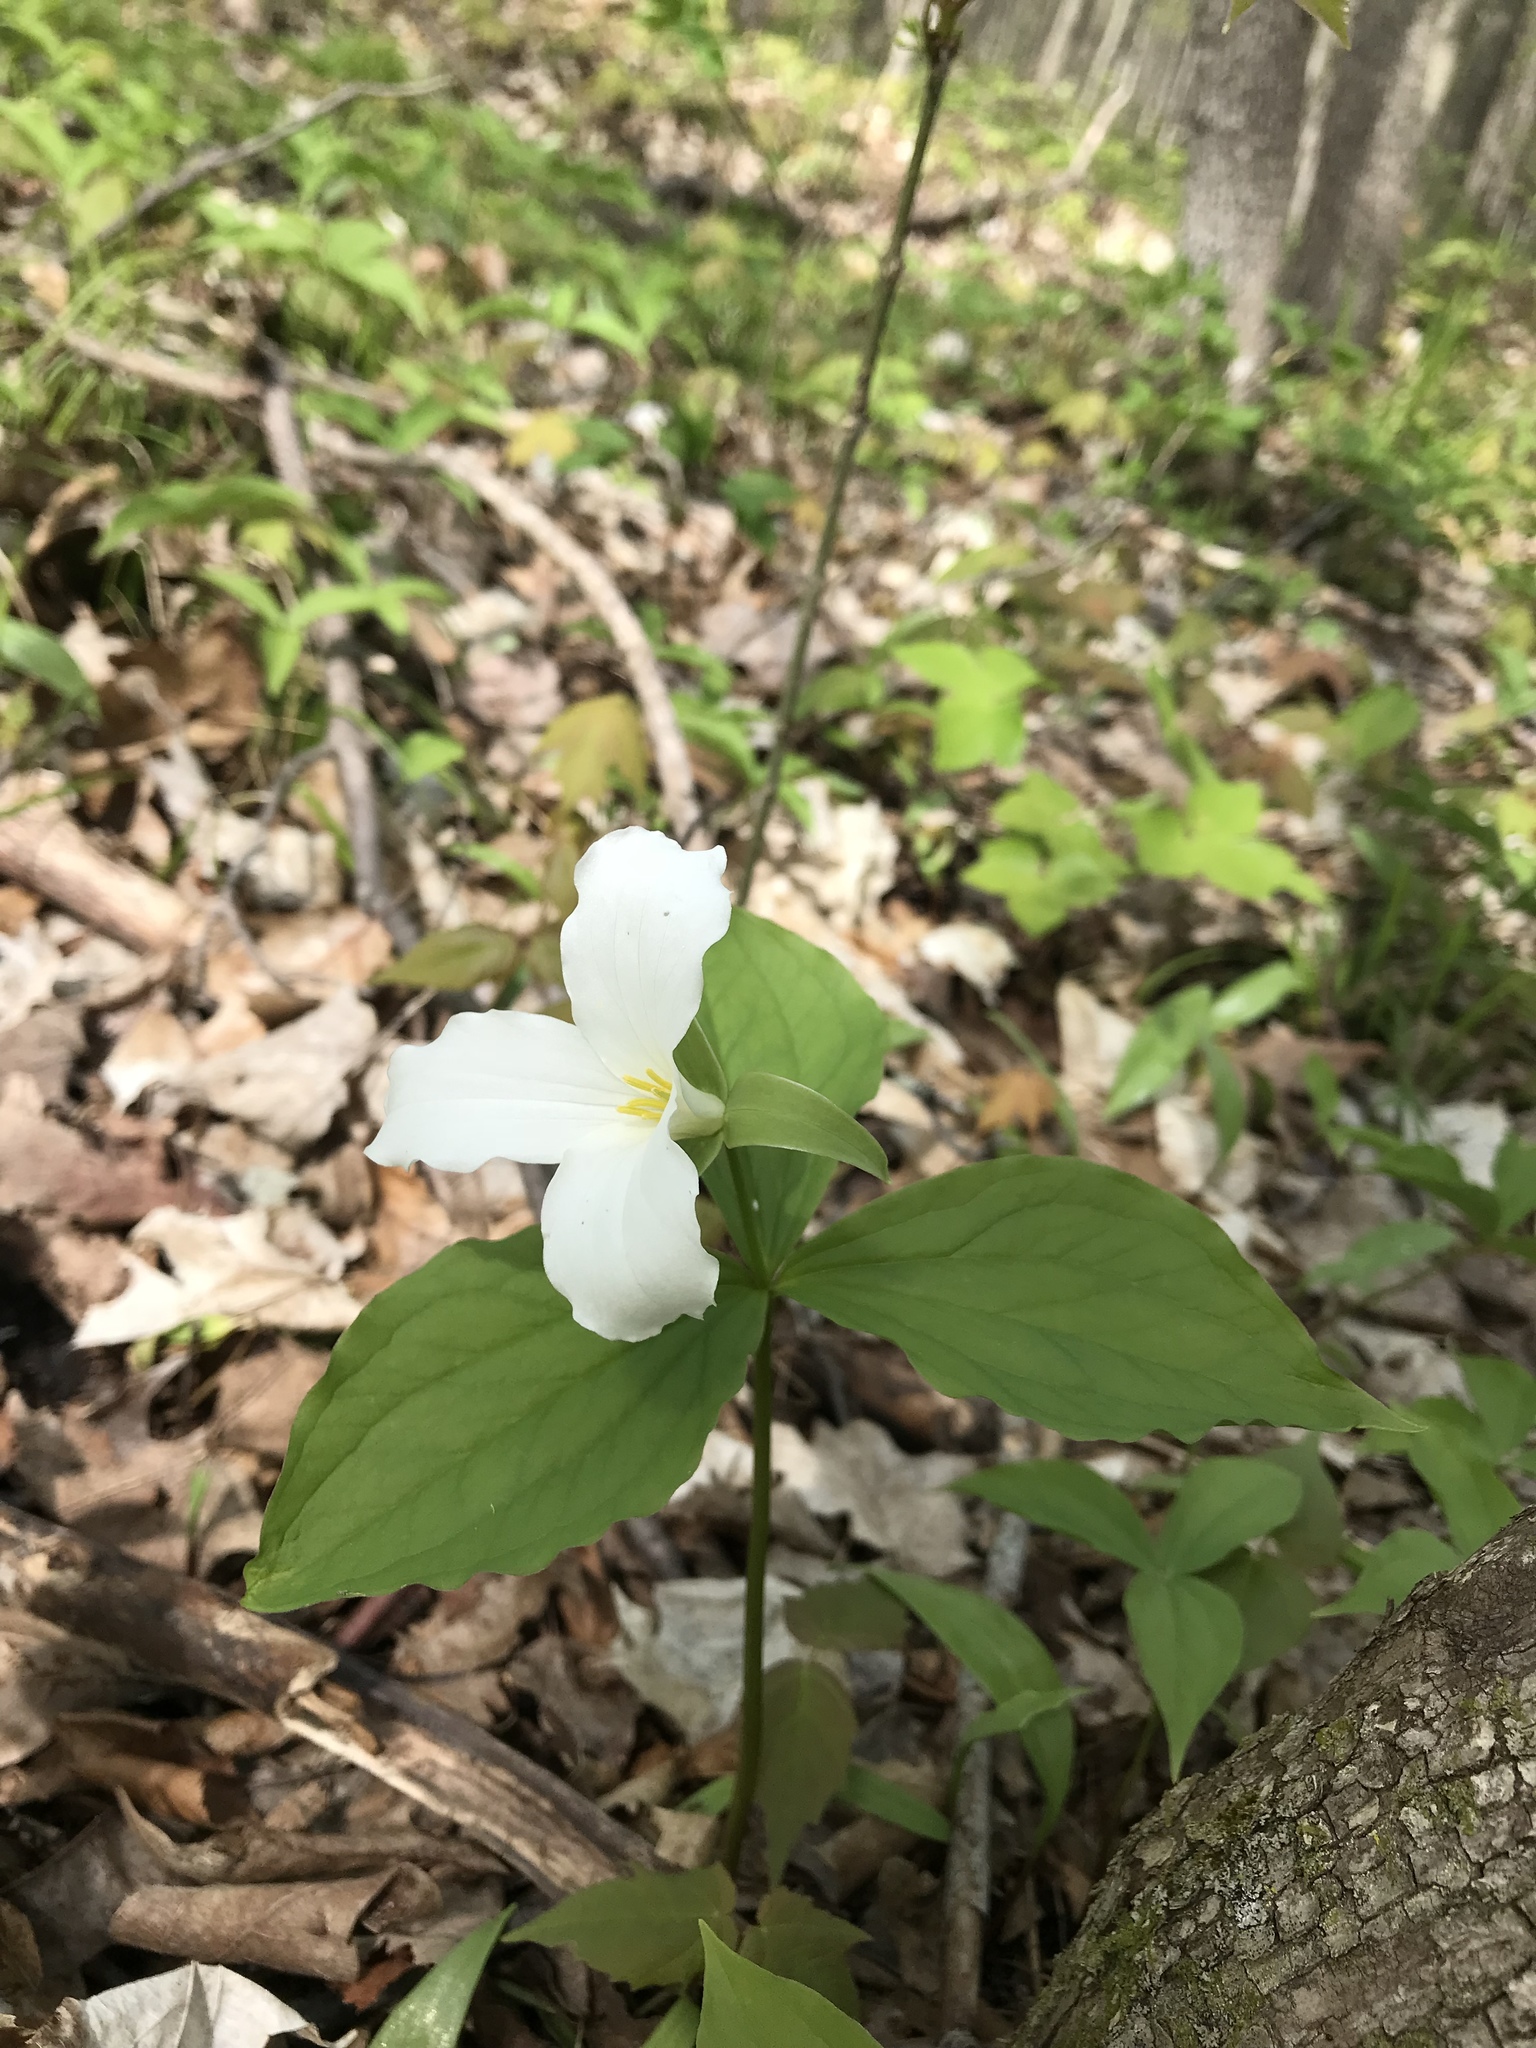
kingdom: Plantae
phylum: Tracheophyta
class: Liliopsida
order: Liliales
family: Melanthiaceae
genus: Trillium
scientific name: Trillium grandiflorum
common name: Great white trillium
